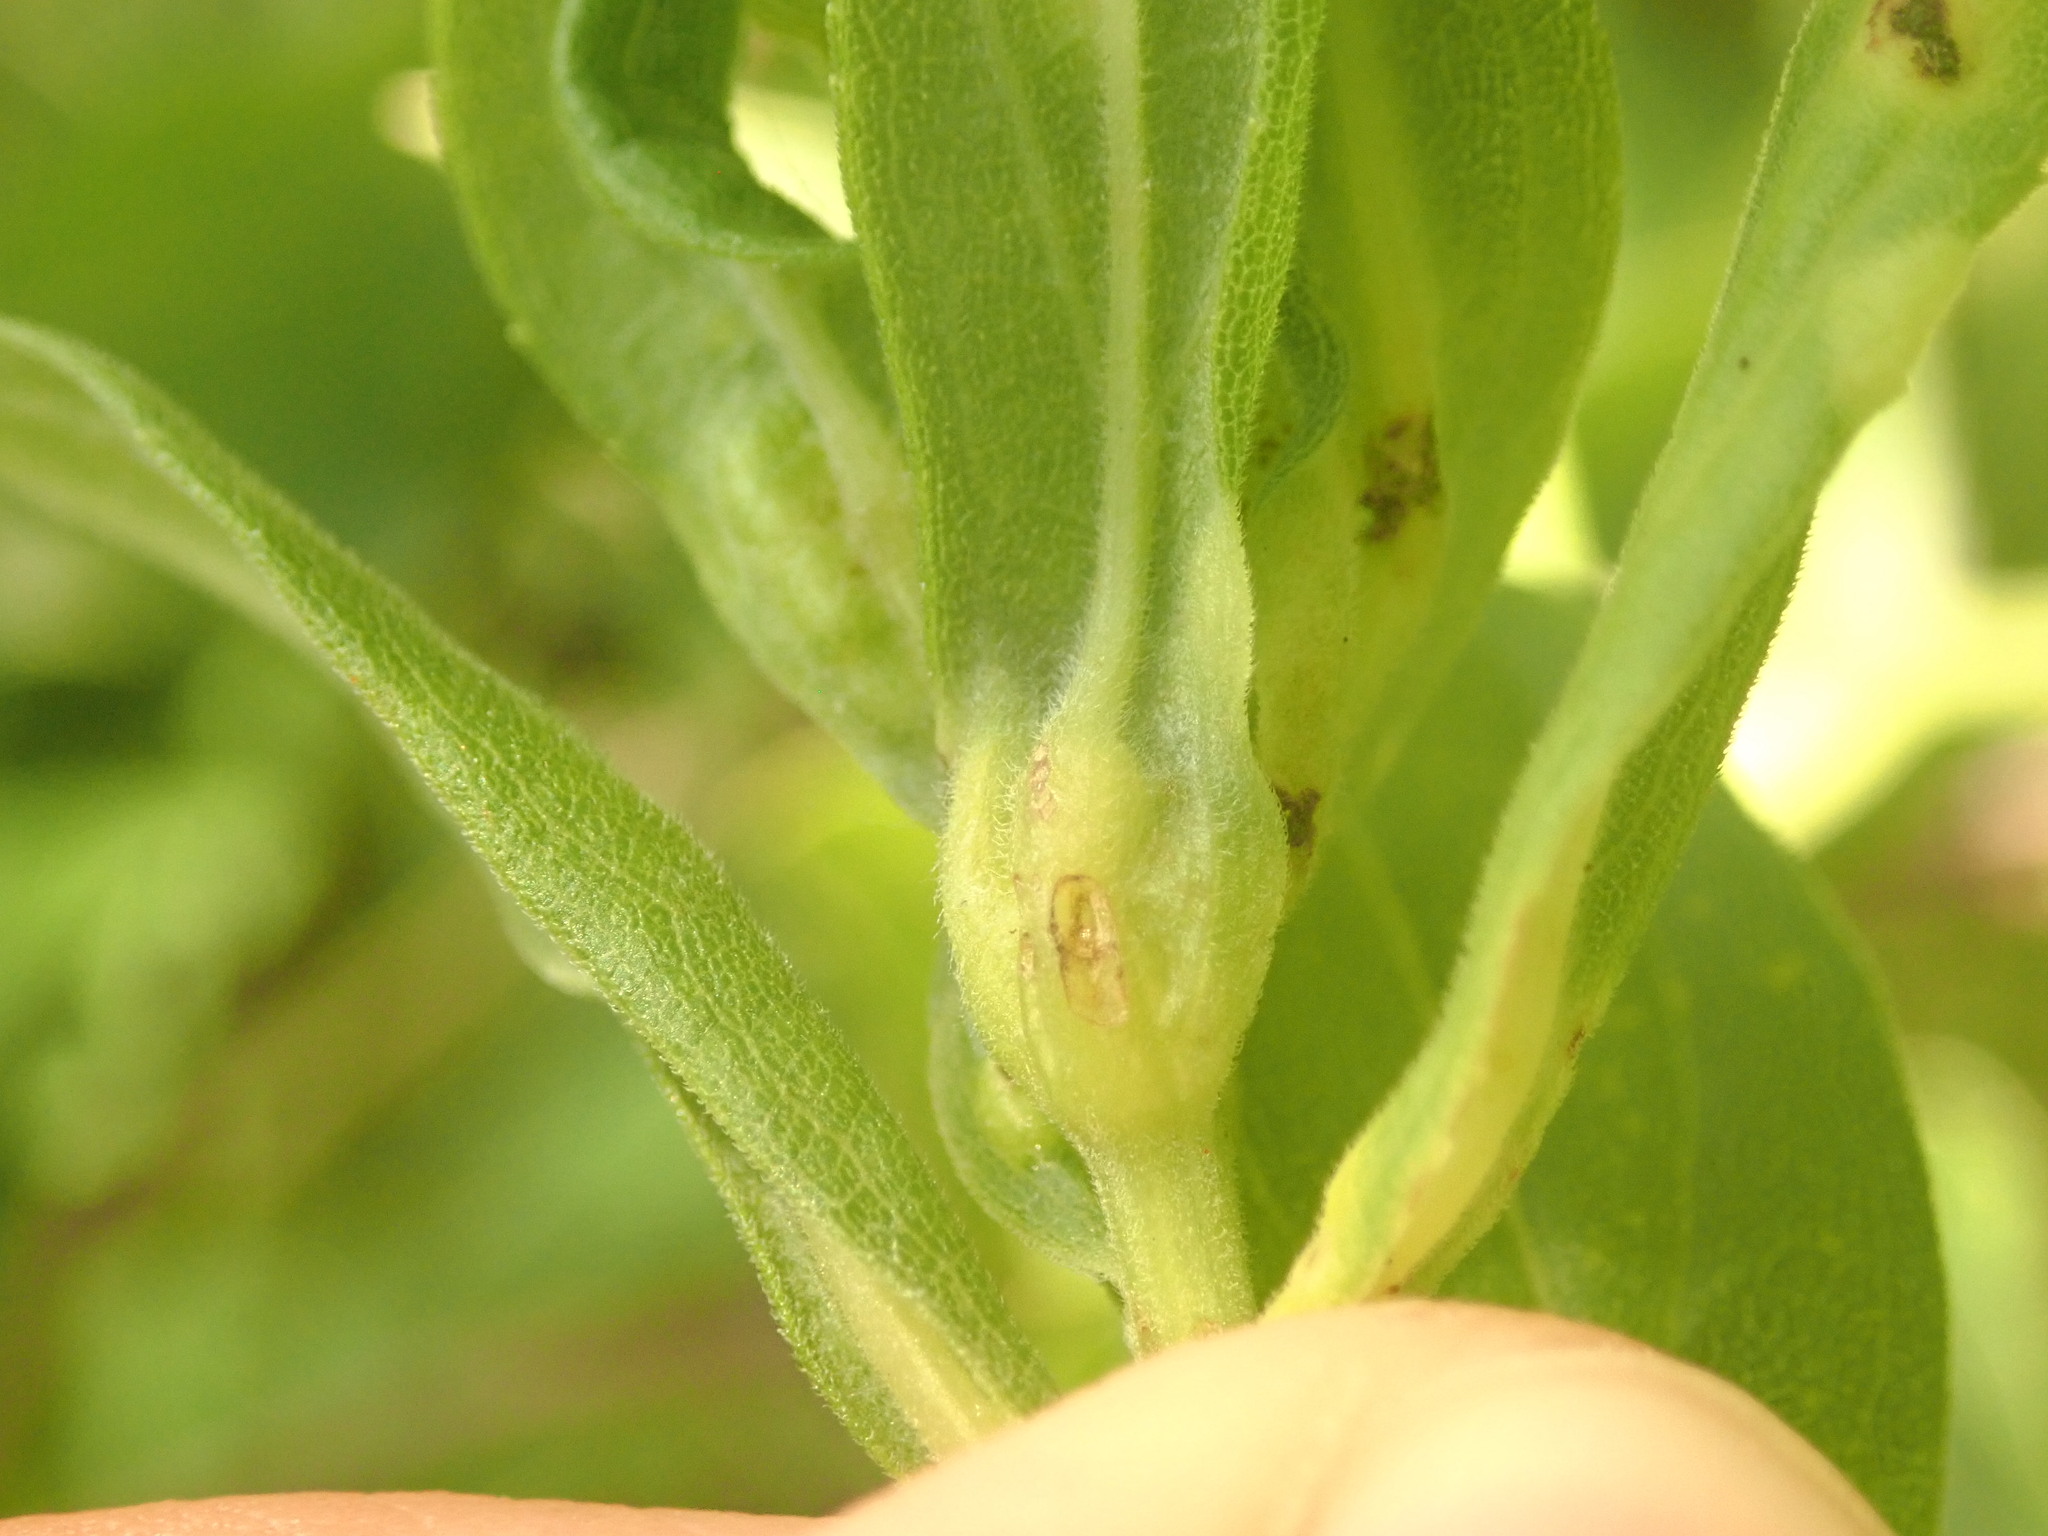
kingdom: Animalia
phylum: Arthropoda
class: Insecta
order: Diptera
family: Cecidomyiidae
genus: Dasineura
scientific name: Dasineura folliculi
